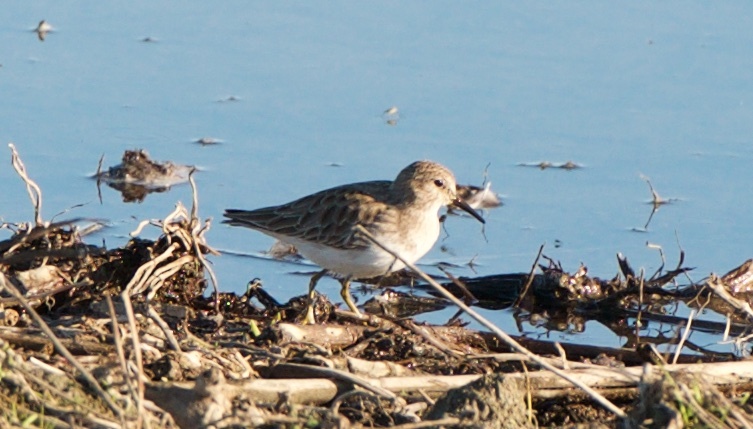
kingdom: Animalia
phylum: Chordata
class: Aves
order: Charadriiformes
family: Scolopacidae
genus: Calidris
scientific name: Calidris minutilla
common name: Least sandpiper
